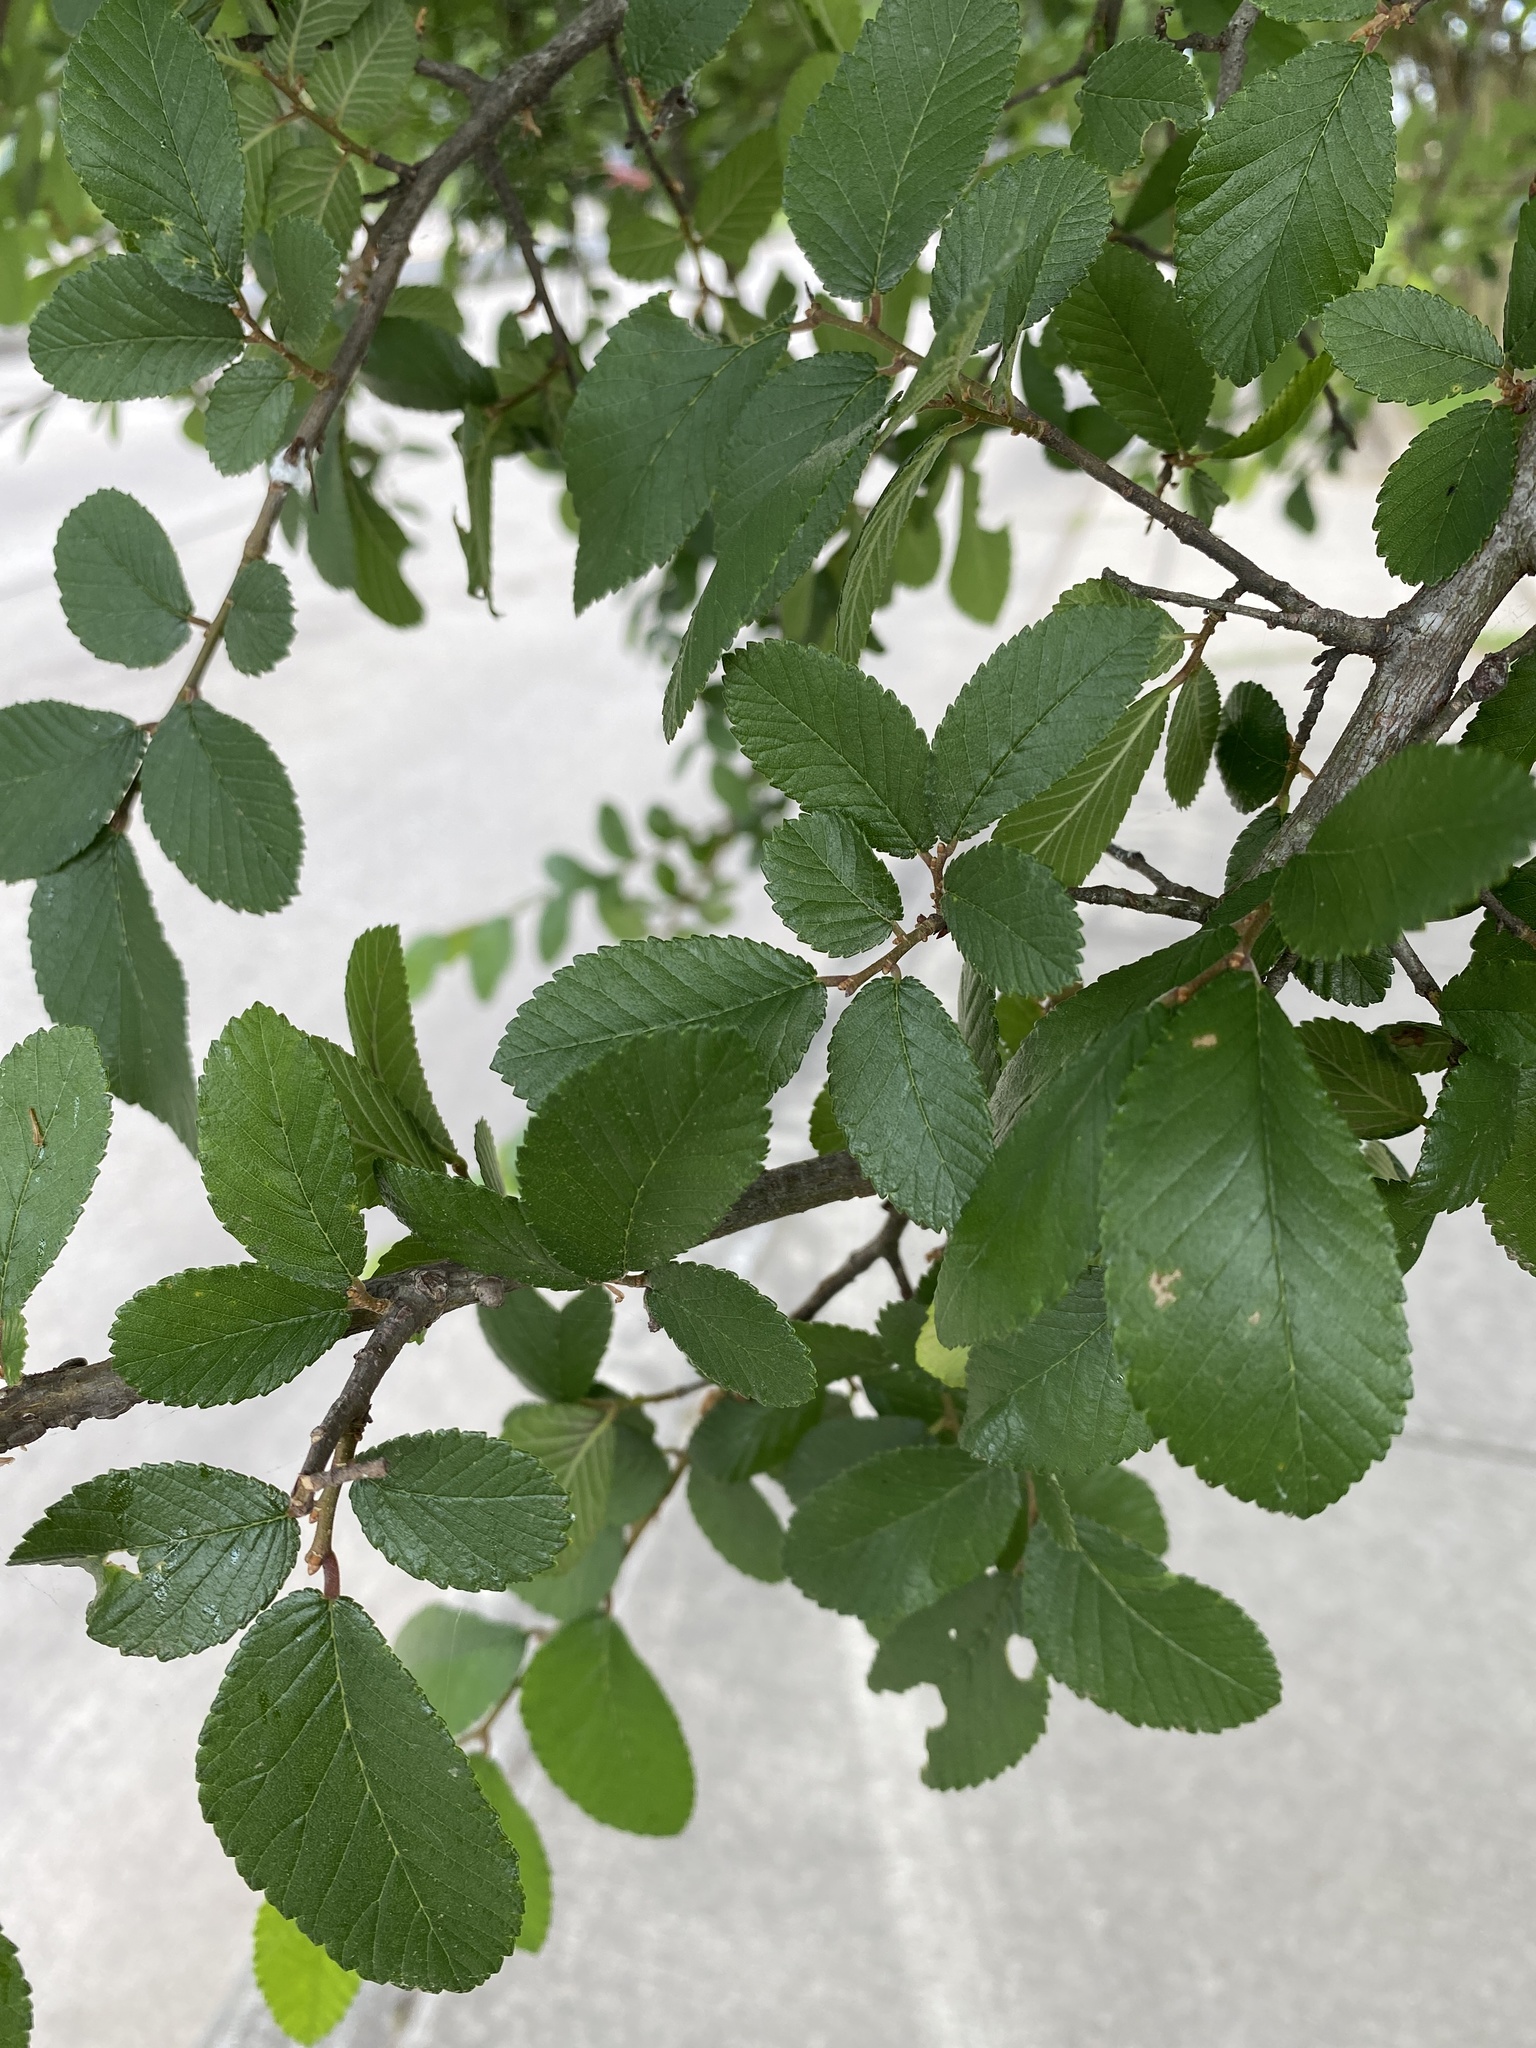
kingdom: Plantae
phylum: Tracheophyta
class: Magnoliopsida
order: Rosales
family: Ulmaceae
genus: Ulmus
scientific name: Ulmus crassifolia
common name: Basket elm
